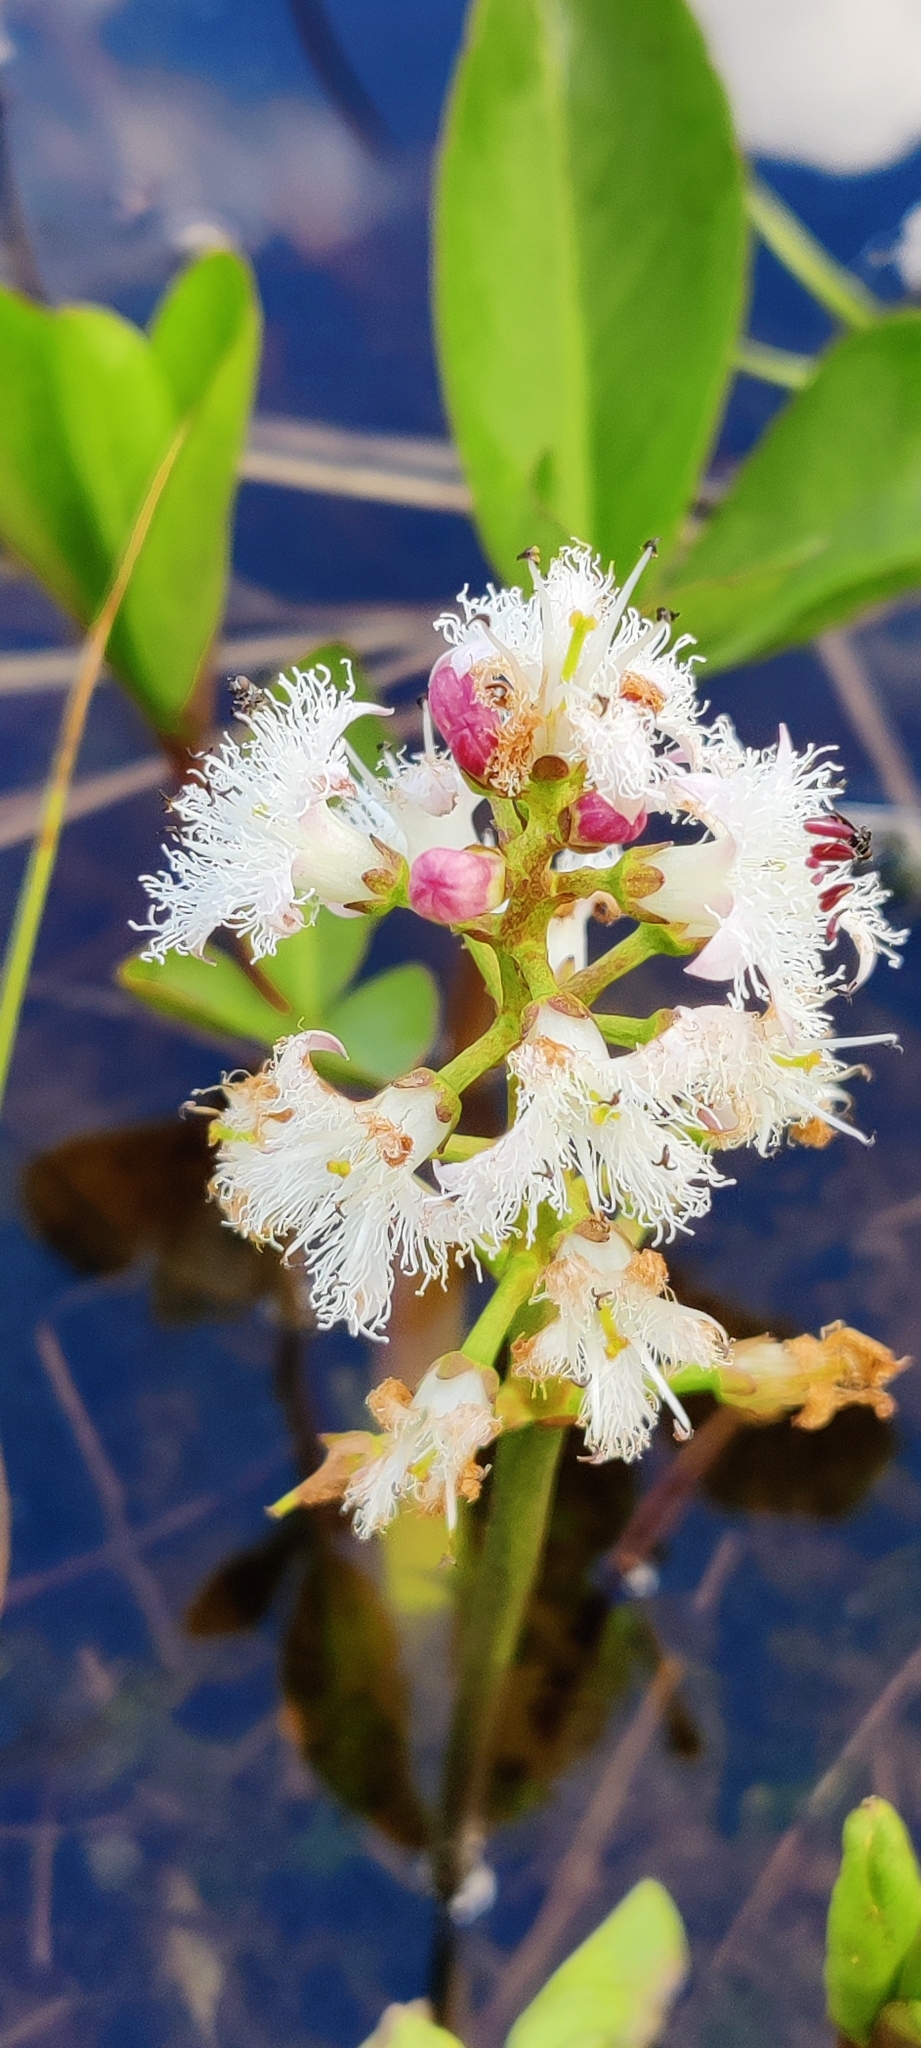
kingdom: Plantae
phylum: Tracheophyta
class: Magnoliopsida
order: Asterales
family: Menyanthaceae
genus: Menyanthes
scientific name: Menyanthes trifoliata
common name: Bogbean
